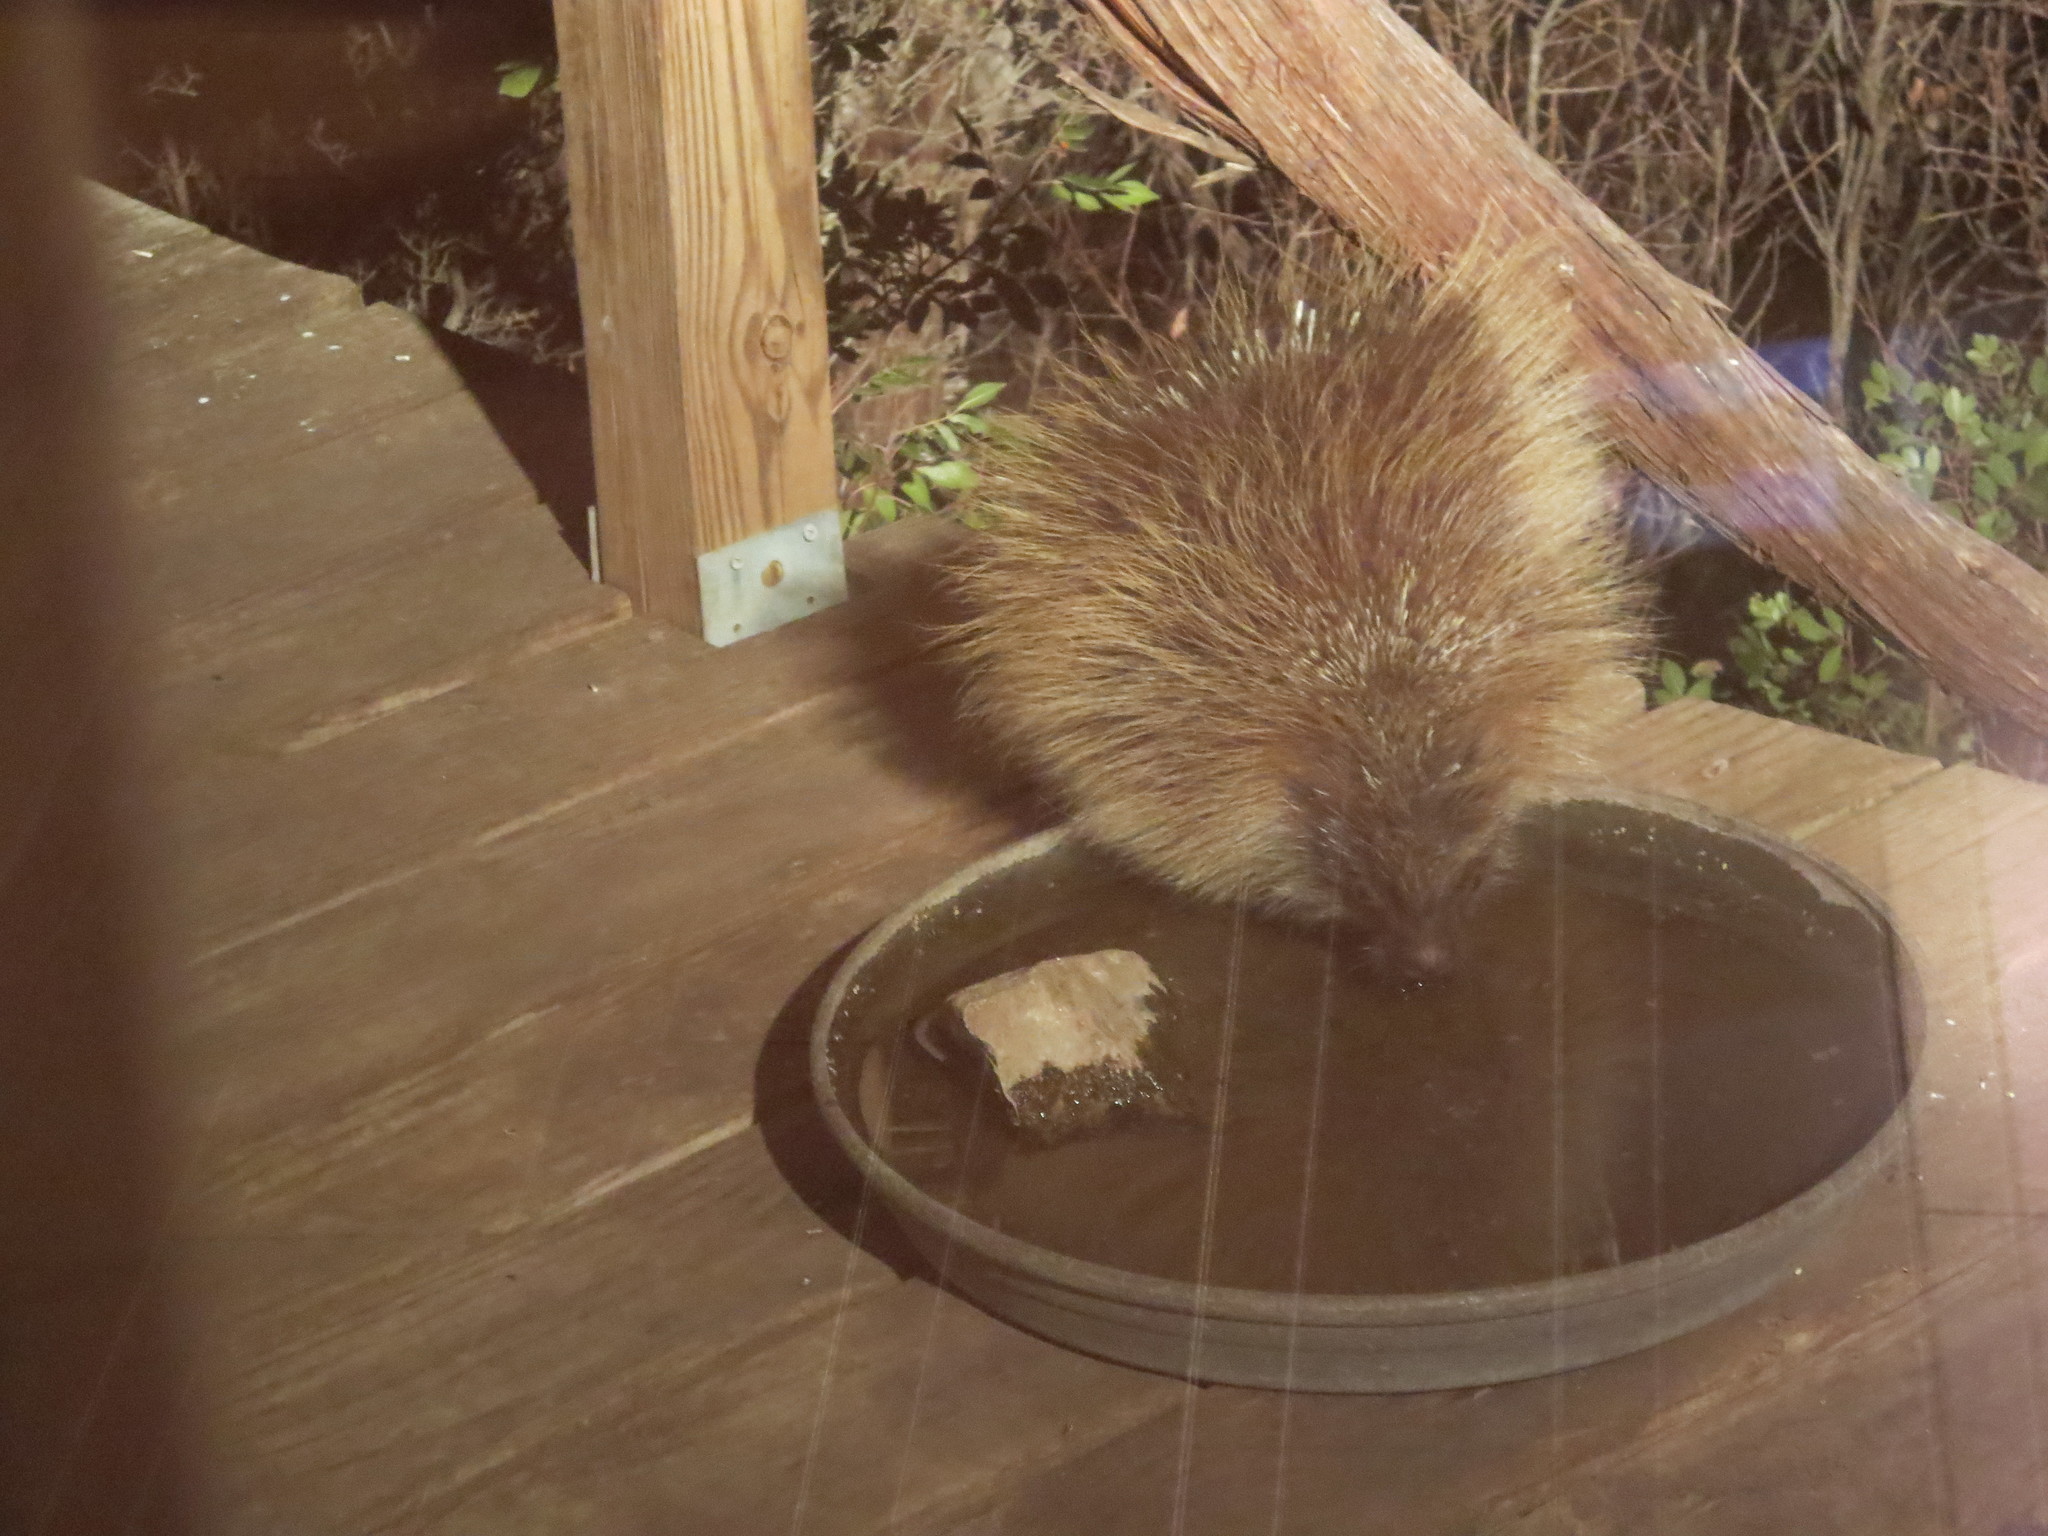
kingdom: Animalia
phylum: Chordata
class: Mammalia
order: Rodentia
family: Erethizontidae
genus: Erethizon
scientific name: Erethizon dorsatus
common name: North american porcupine
